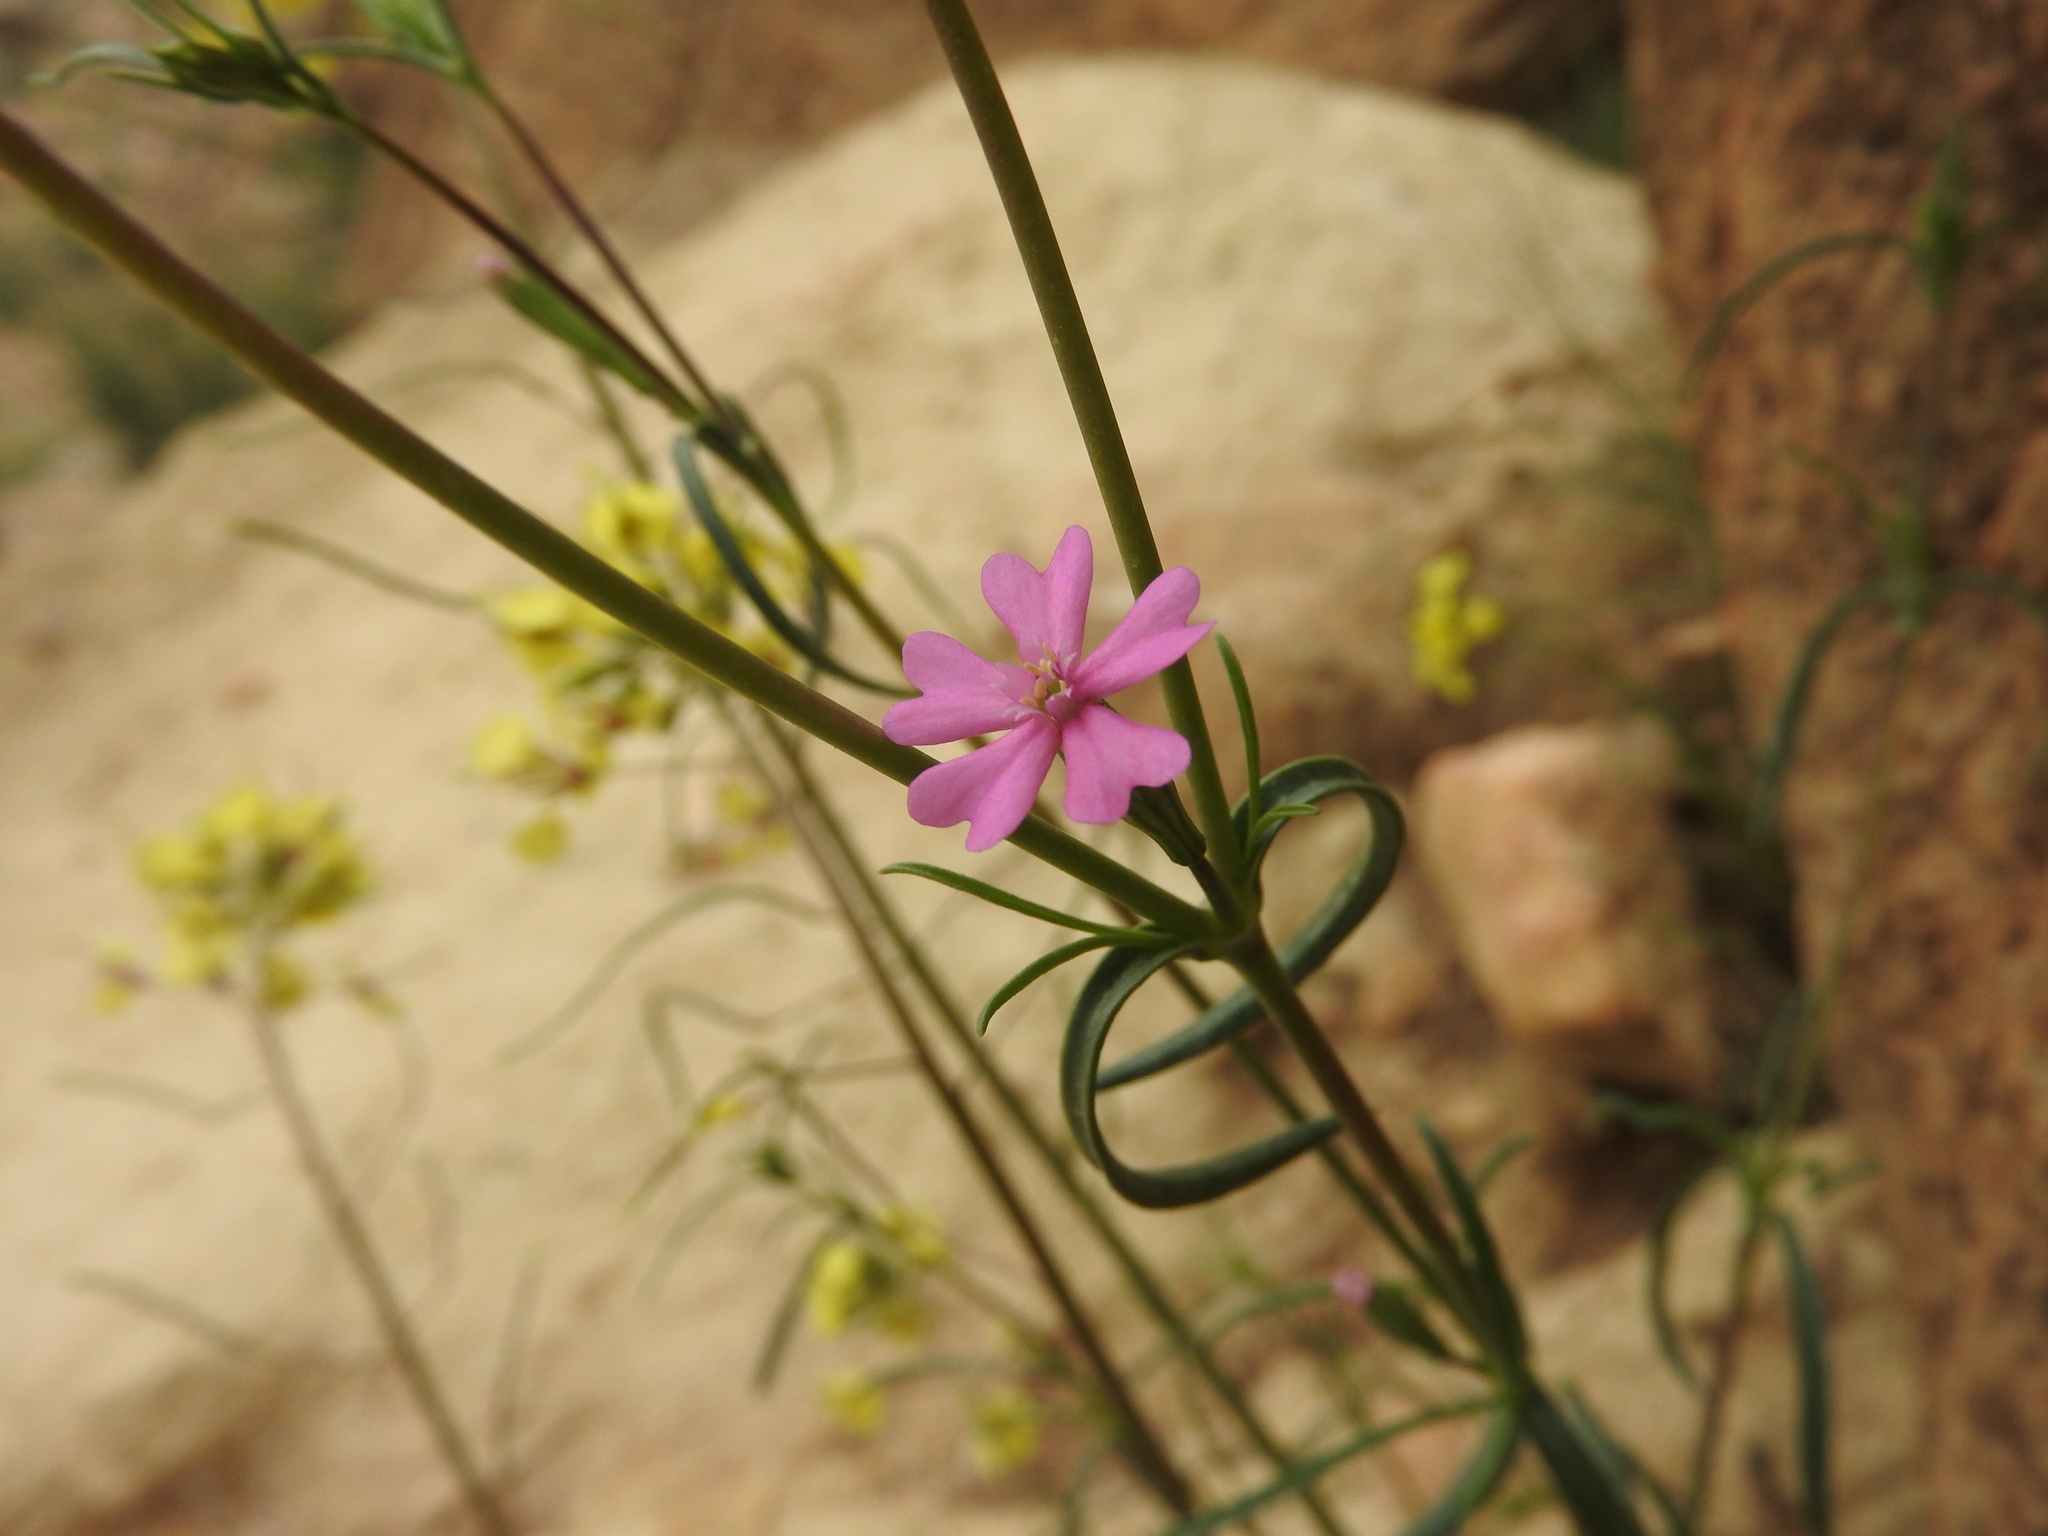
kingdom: Plantae
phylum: Tracheophyta
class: Magnoliopsida
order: Caryophyllales
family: Caryophyllaceae
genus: Silene
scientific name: Silene muscipula
